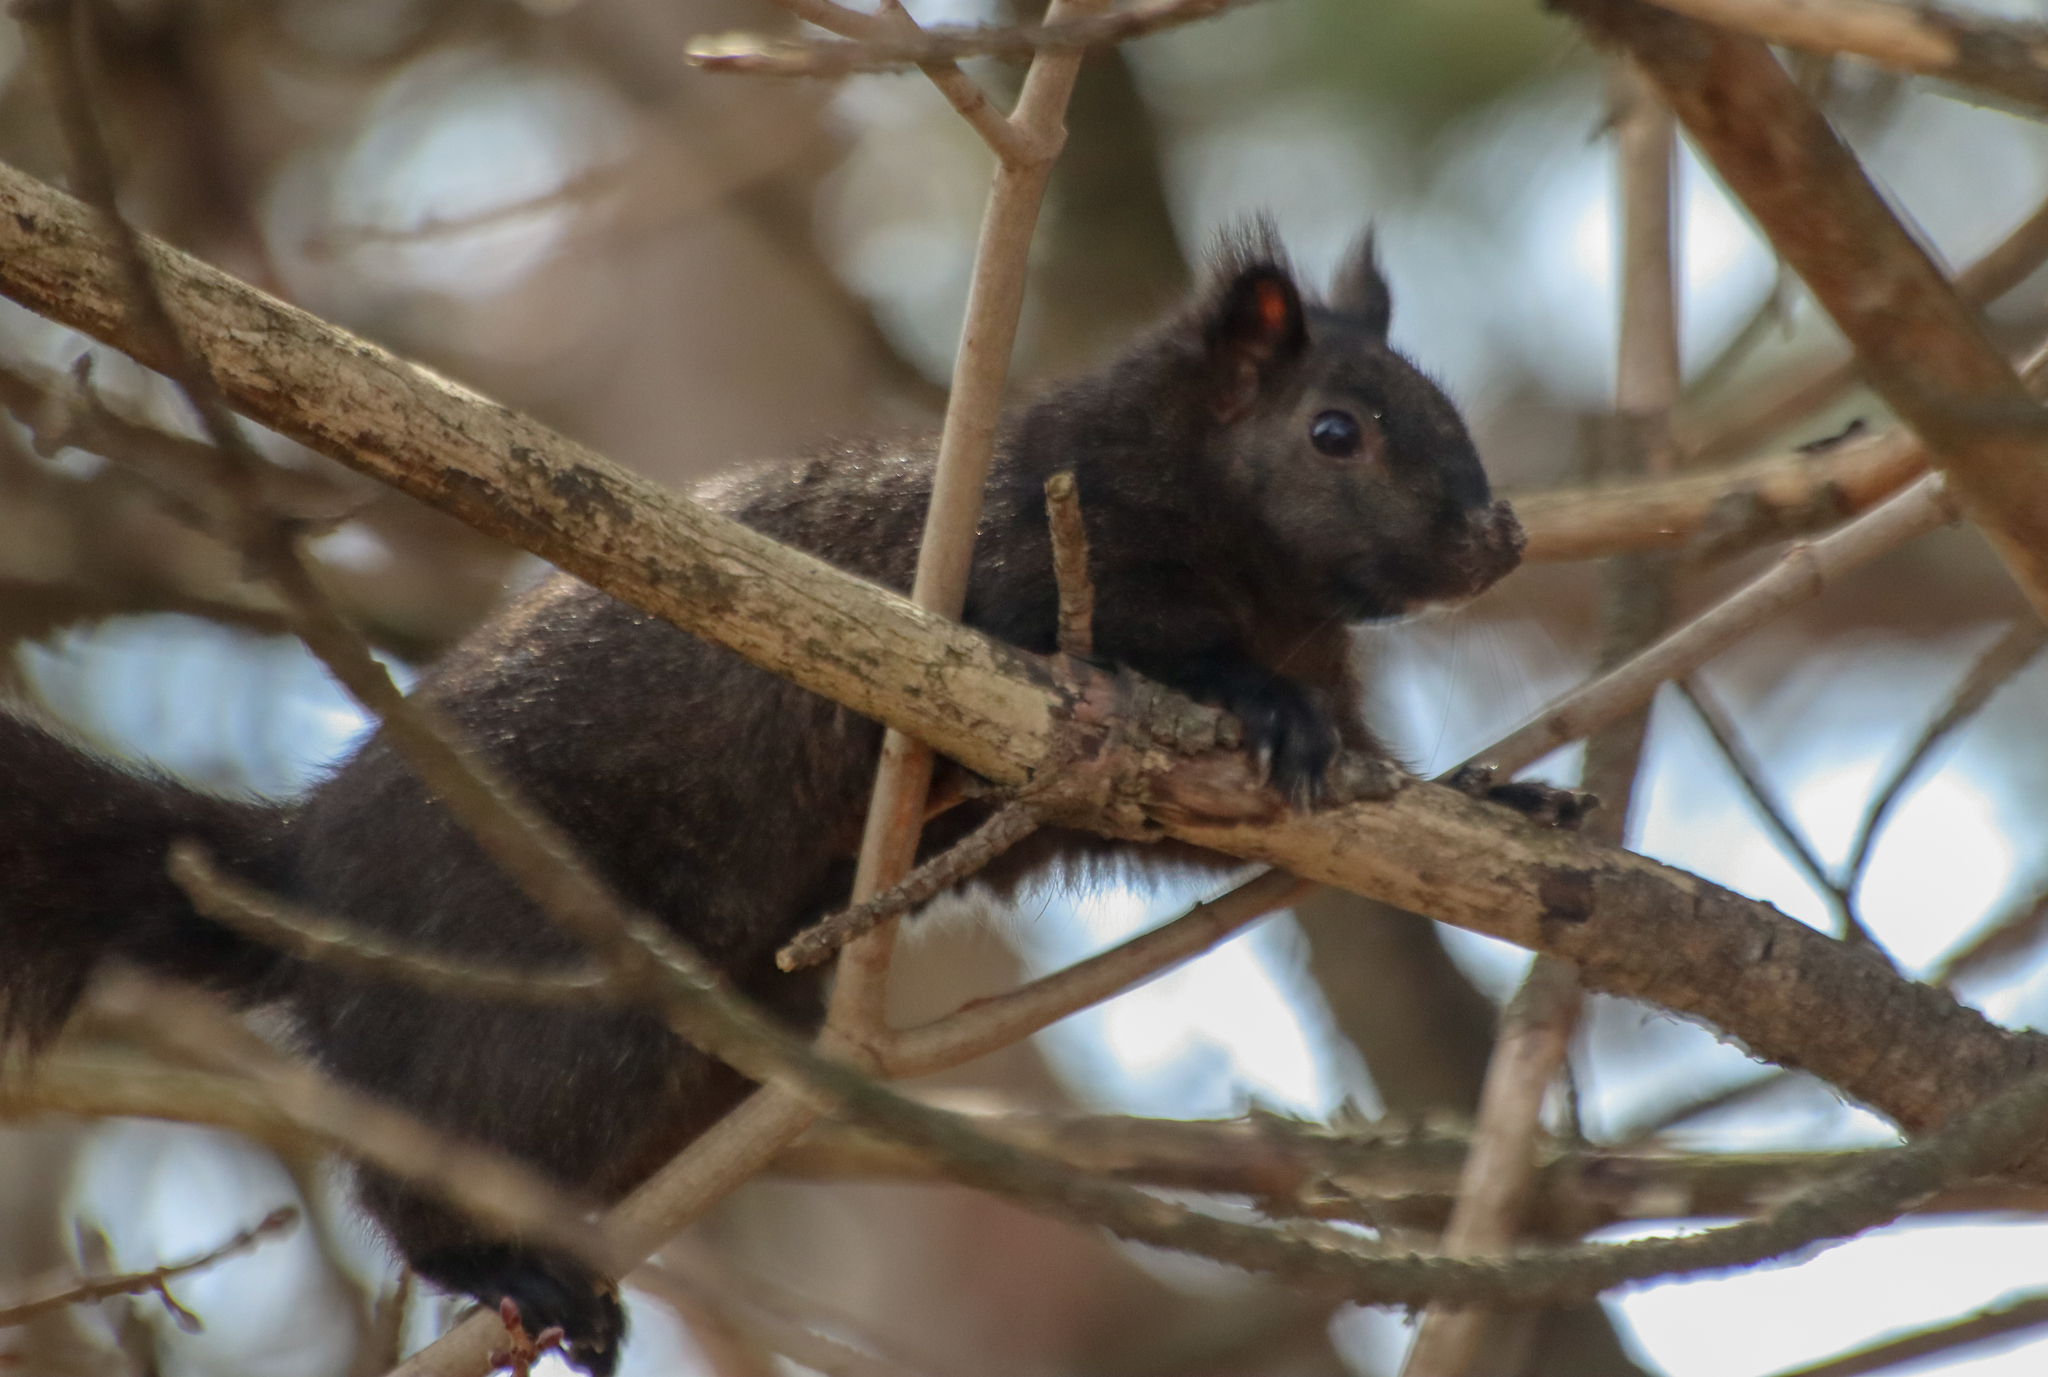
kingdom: Animalia
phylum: Chordata
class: Mammalia
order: Rodentia
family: Sciuridae
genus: Sciurus
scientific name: Sciurus carolinensis
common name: Eastern gray squirrel
